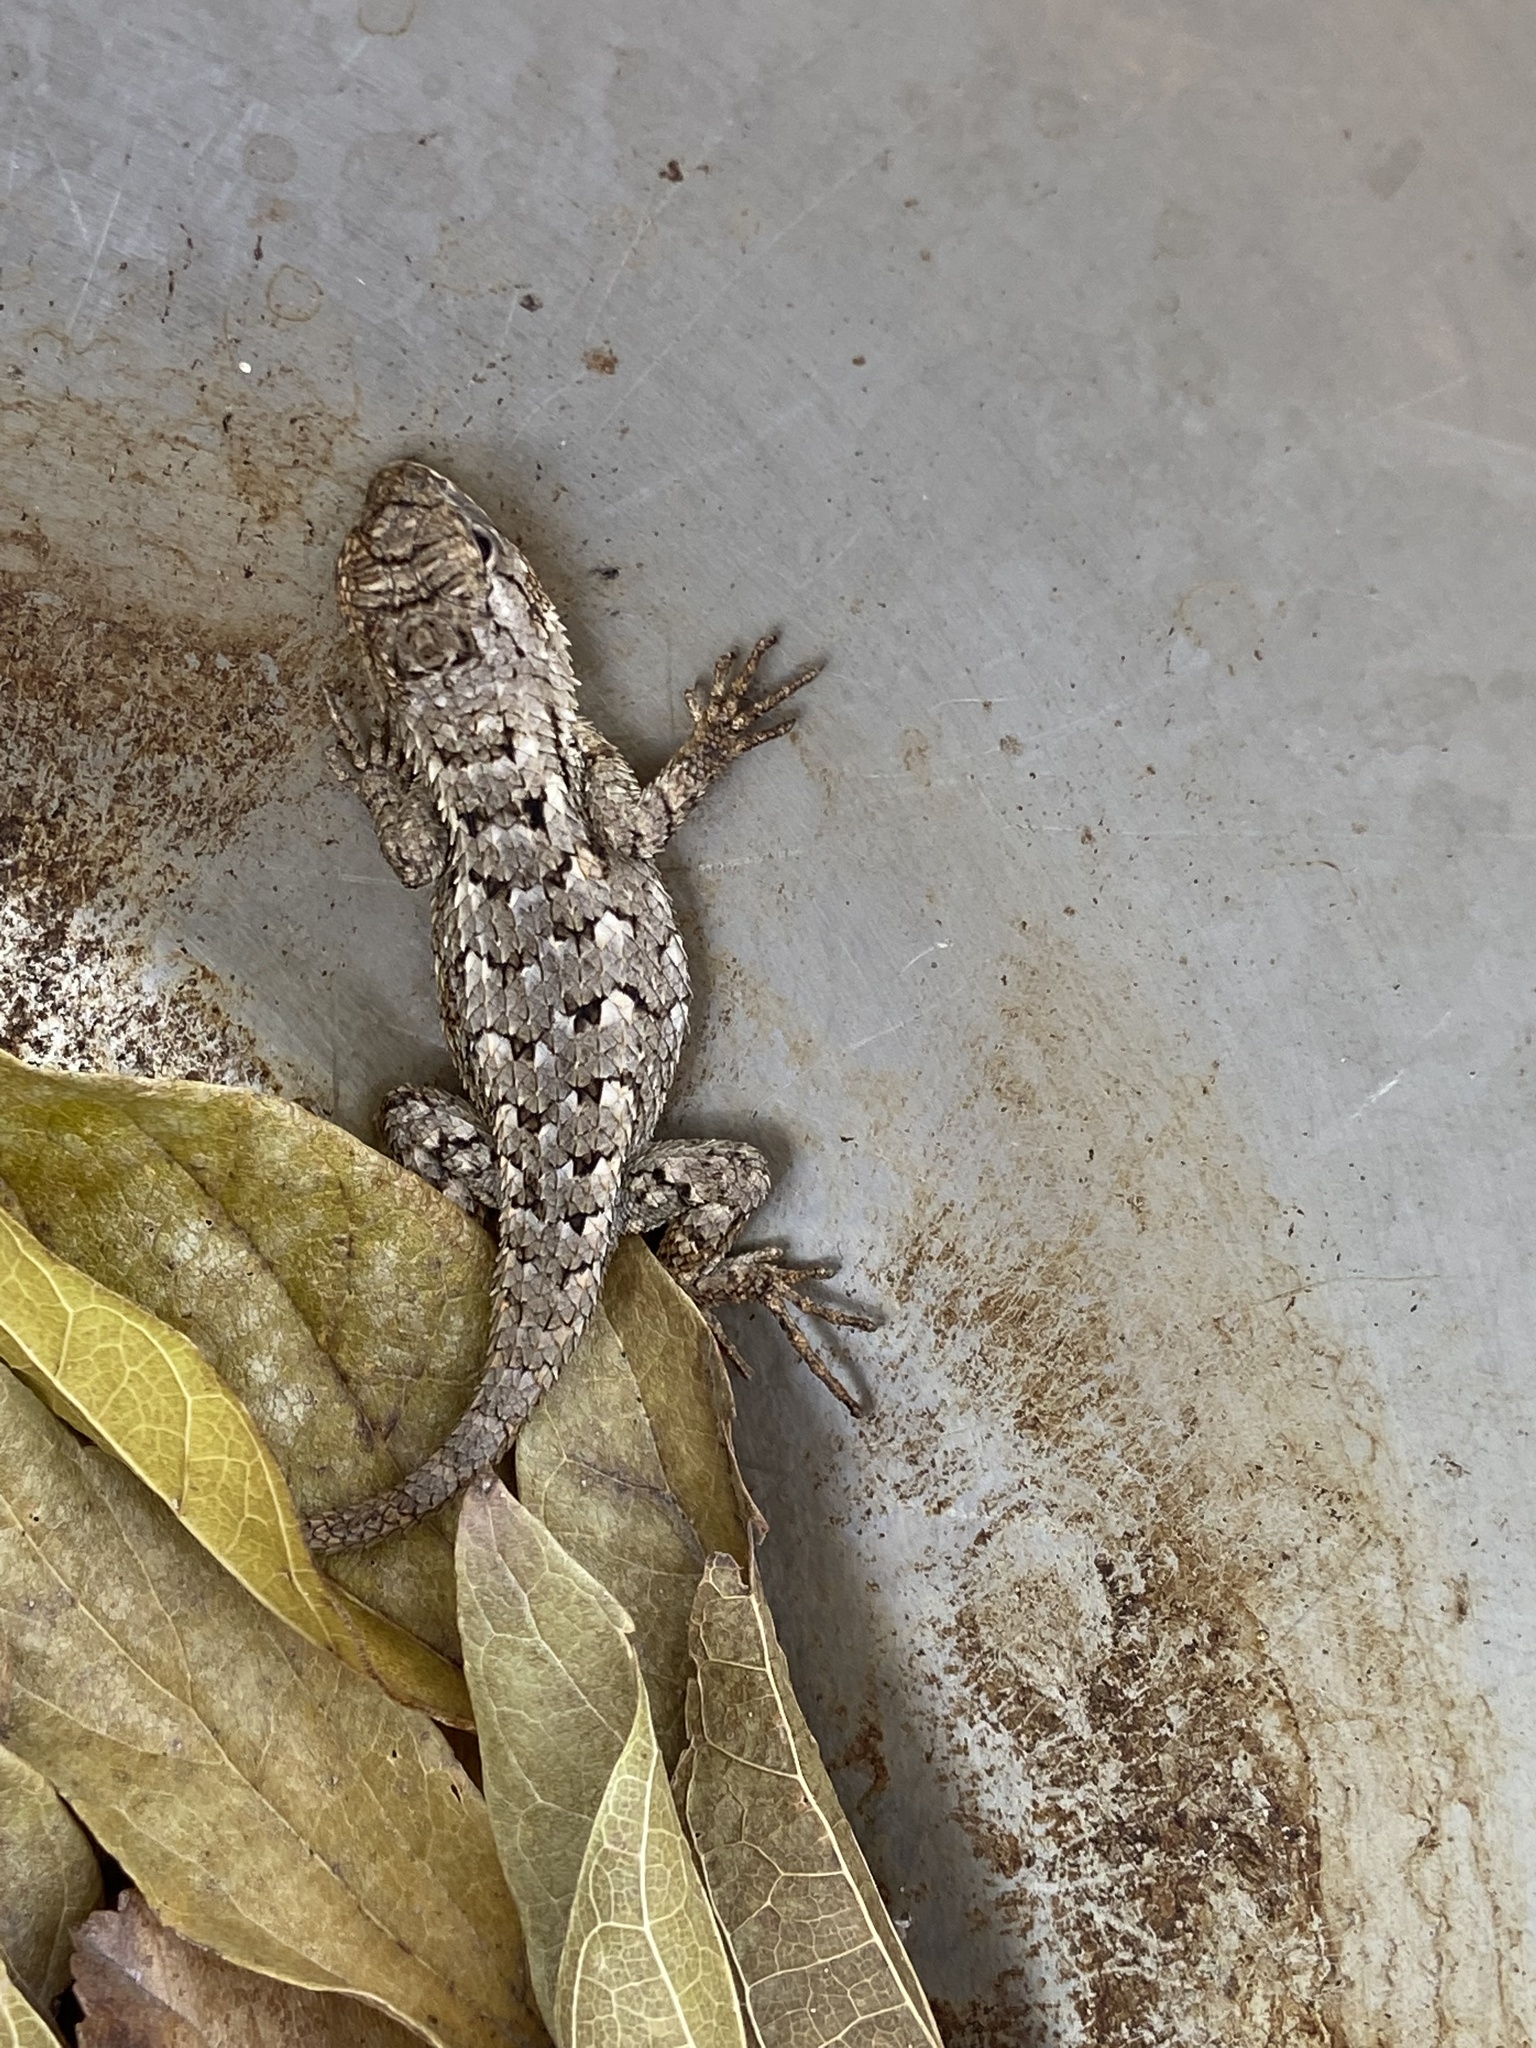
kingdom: Animalia
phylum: Chordata
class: Squamata
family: Phrynosomatidae
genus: Sceloporus
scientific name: Sceloporus olivaceus
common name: Texas spiny lizard
